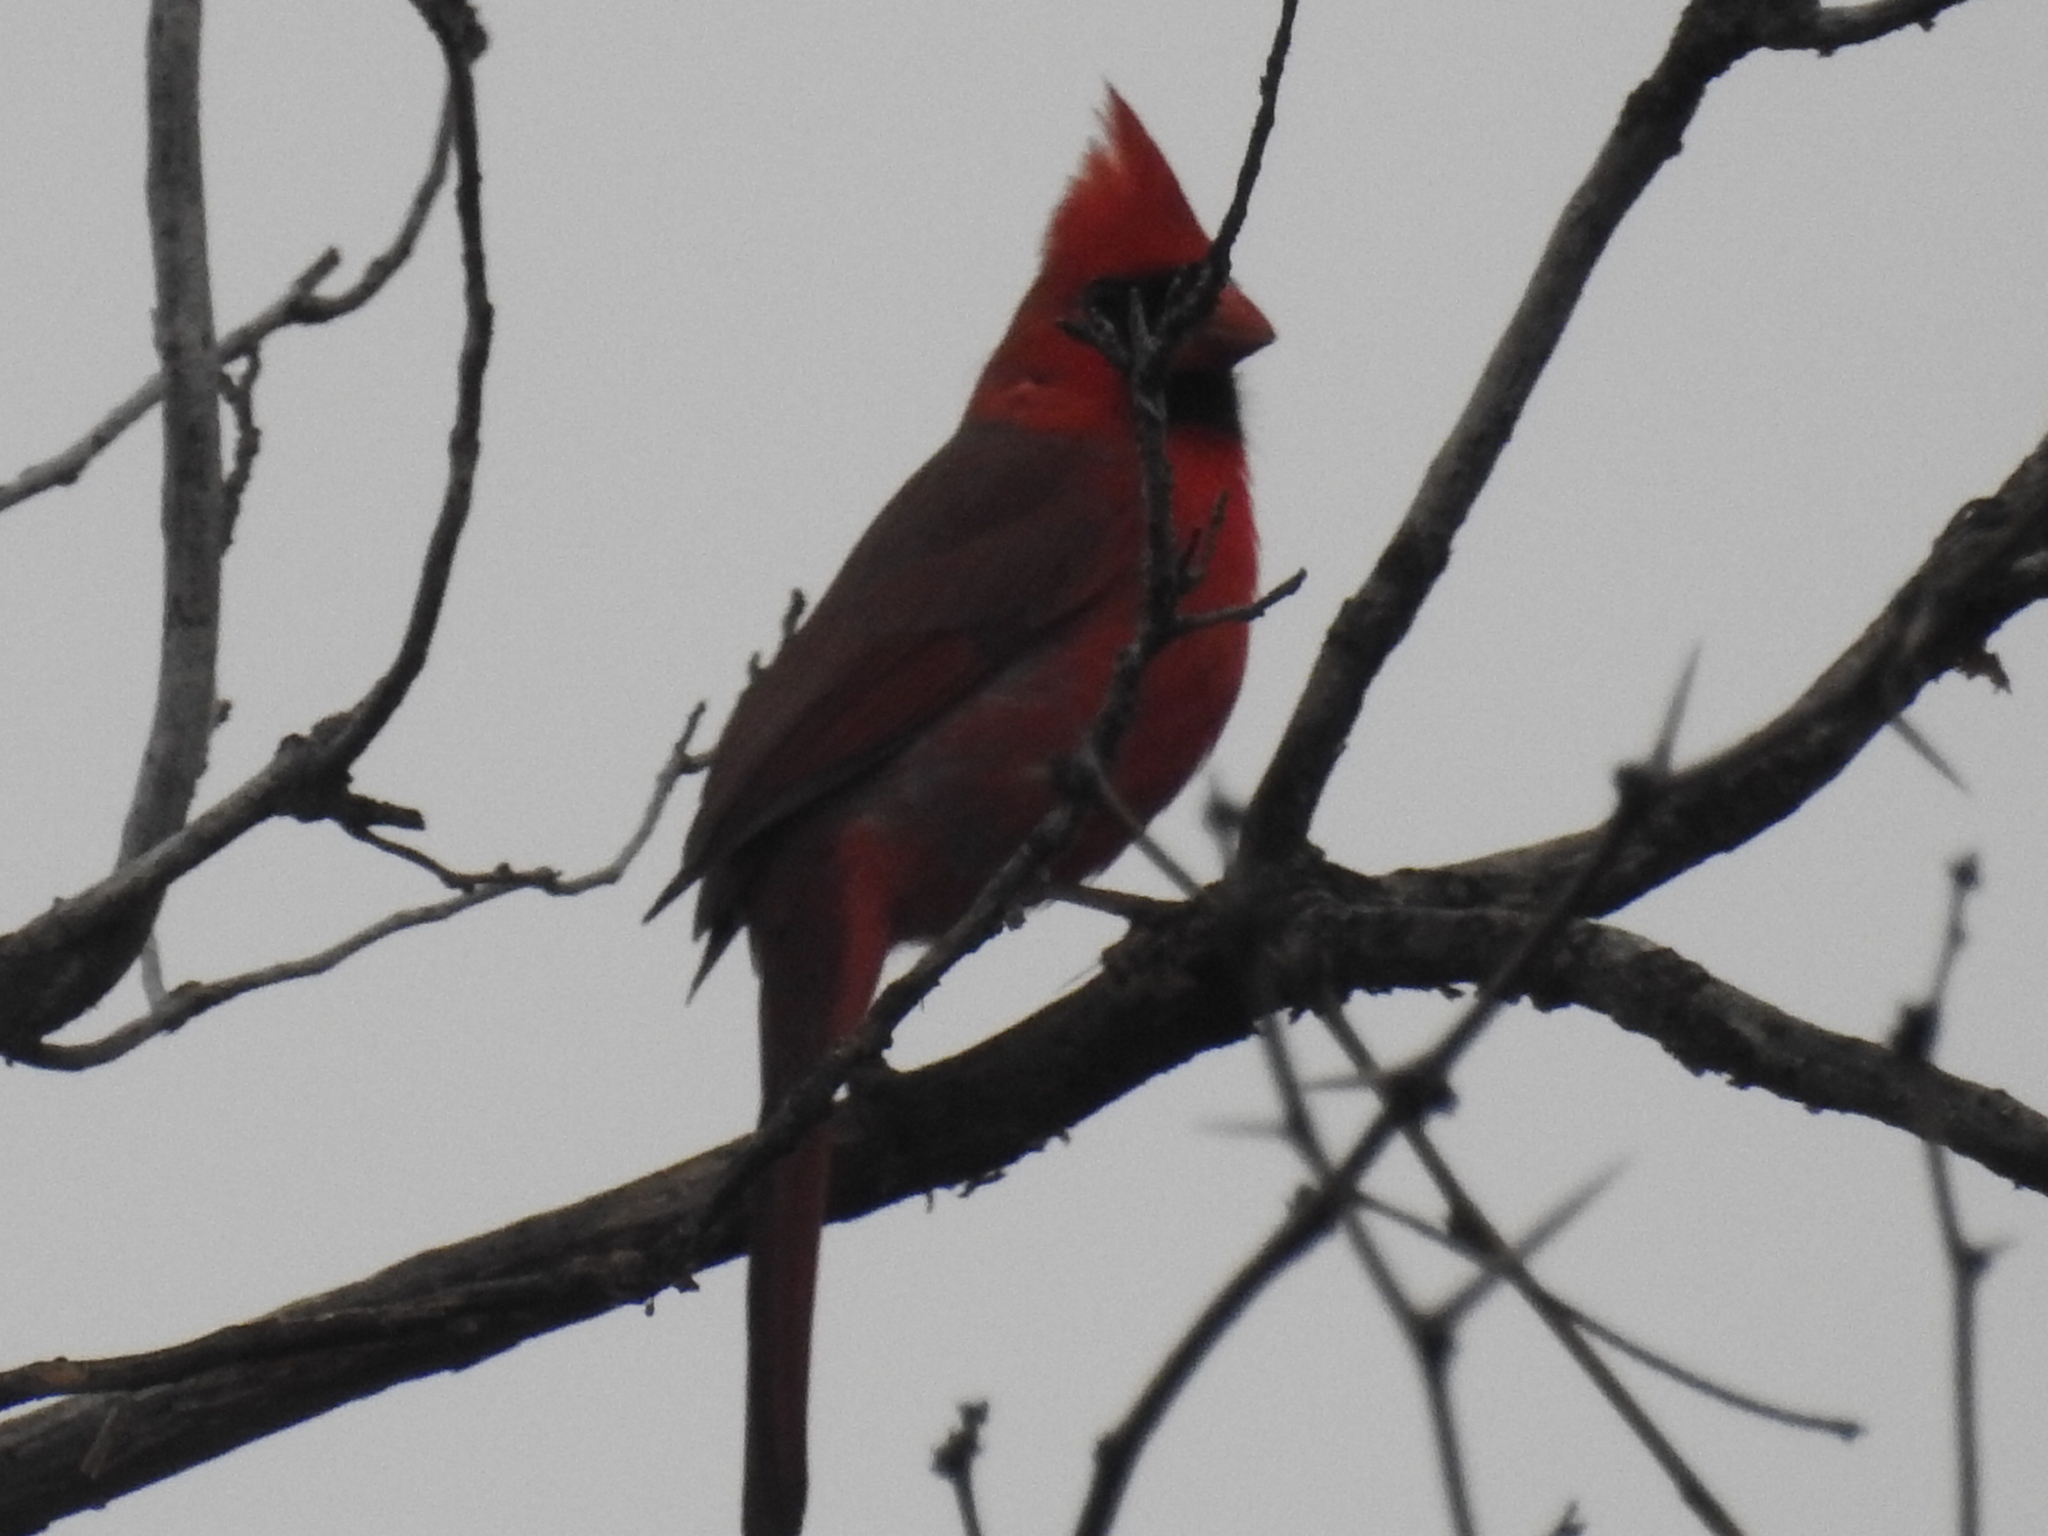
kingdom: Animalia
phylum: Chordata
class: Aves
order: Passeriformes
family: Cardinalidae
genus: Cardinalis
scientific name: Cardinalis cardinalis
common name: Northern cardinal
